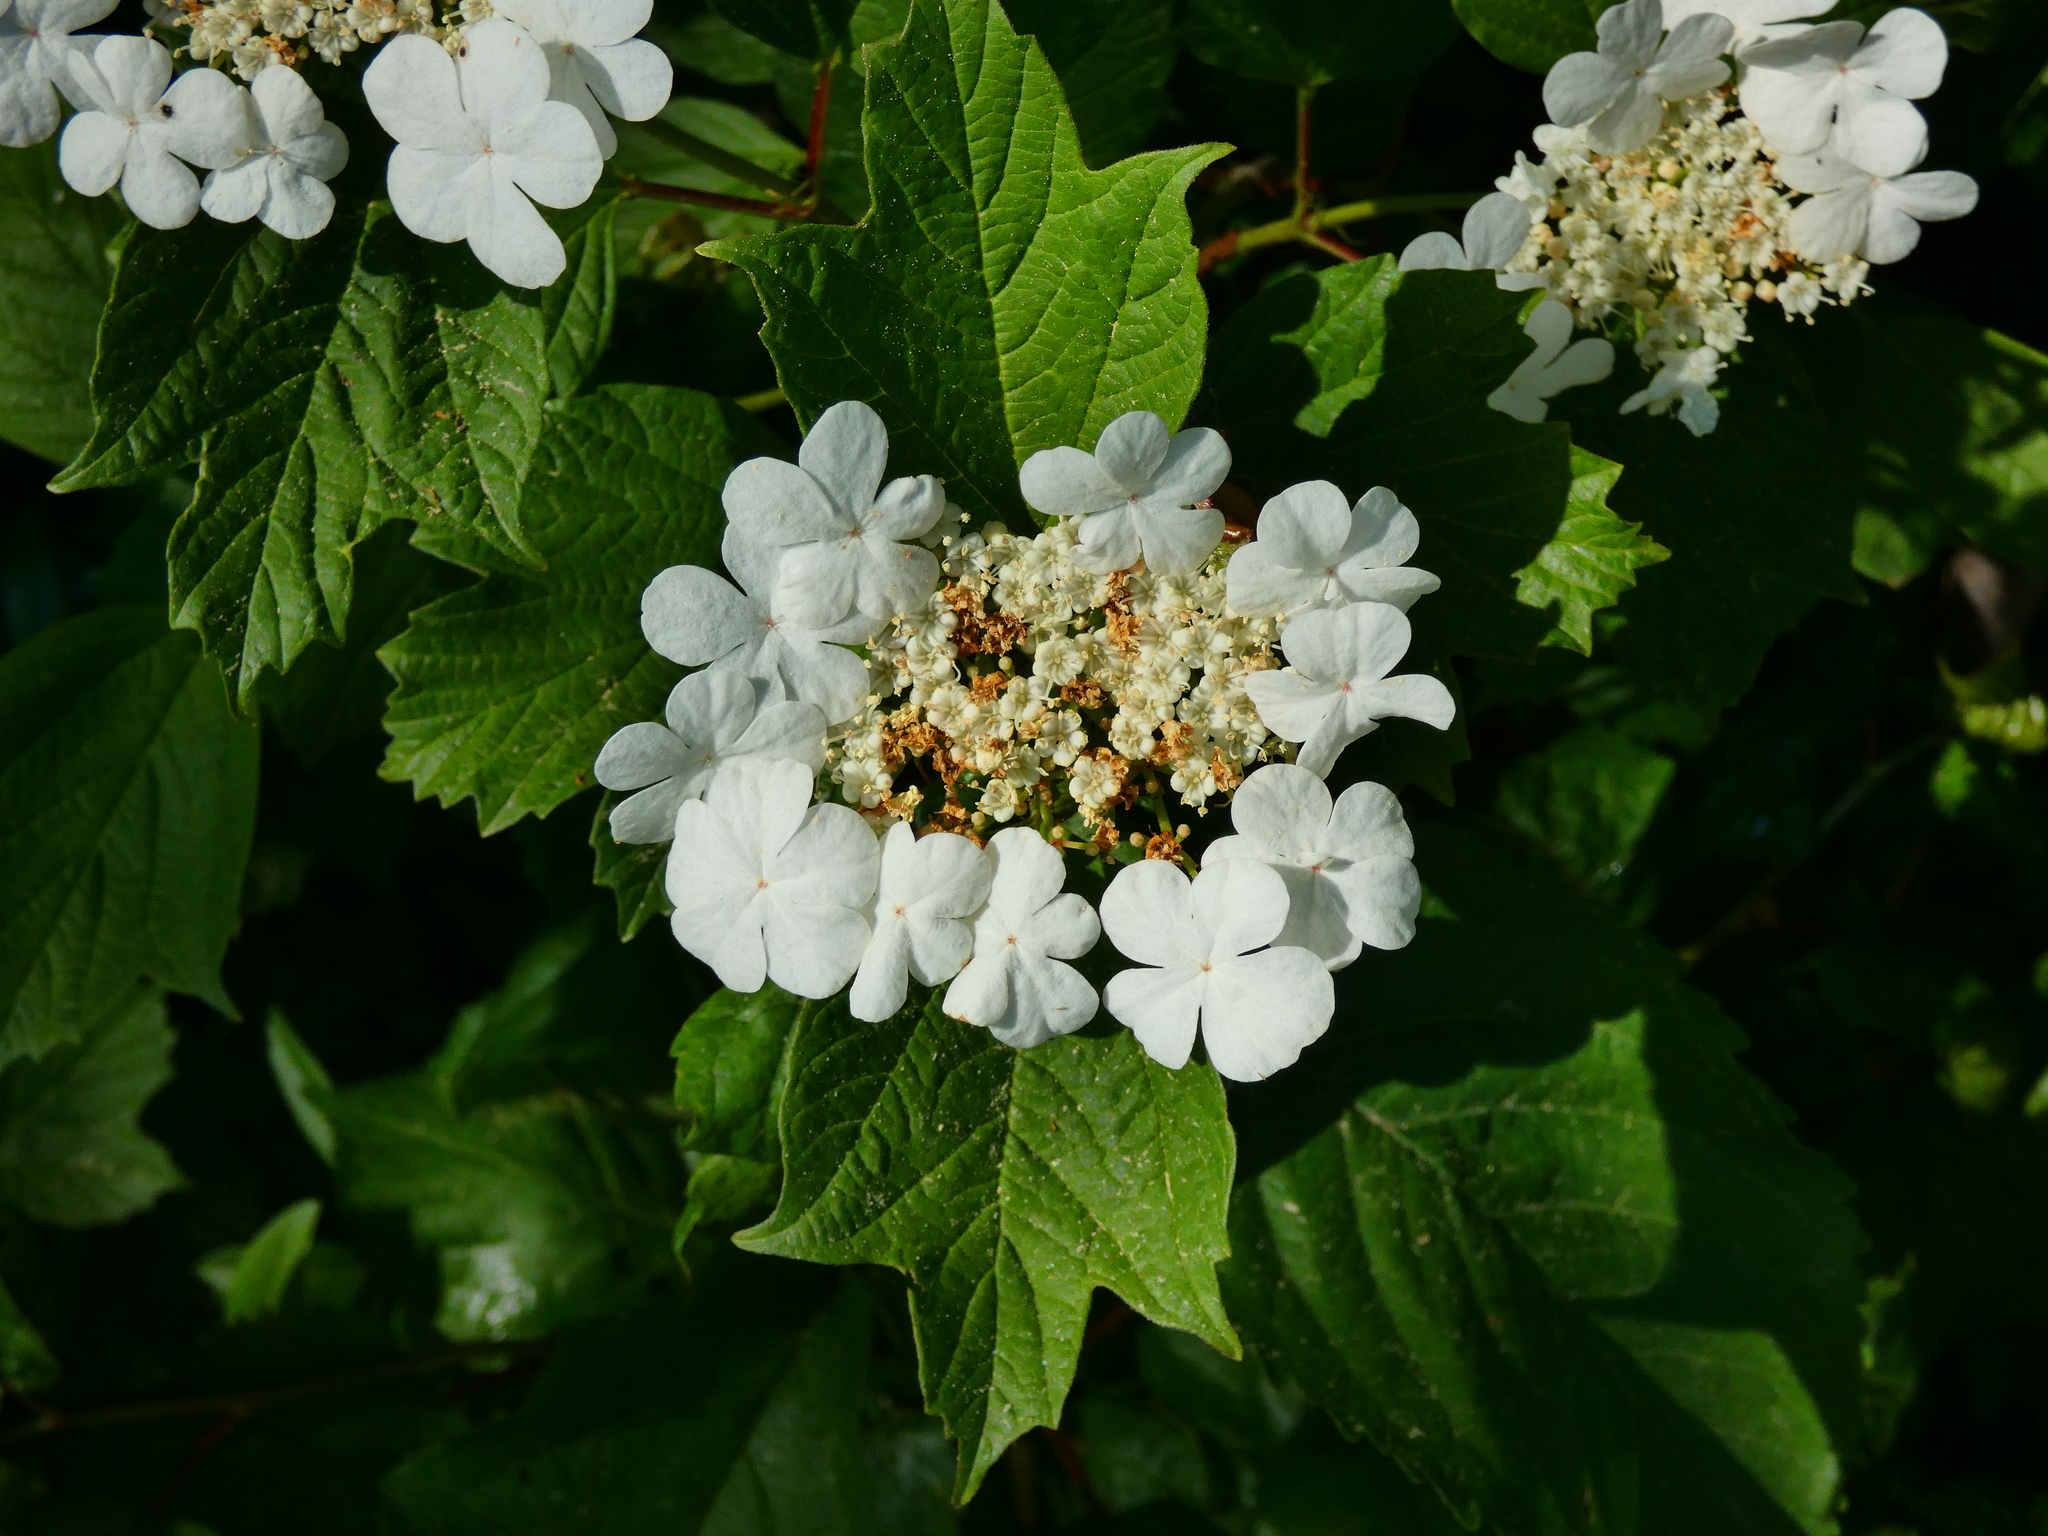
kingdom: Plantae
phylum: Tracheophyta
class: Magnoliopsida
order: Dipsacales
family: Viburnaceae
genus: Viburnum
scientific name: Viburnum opulus
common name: Guelder-rose
